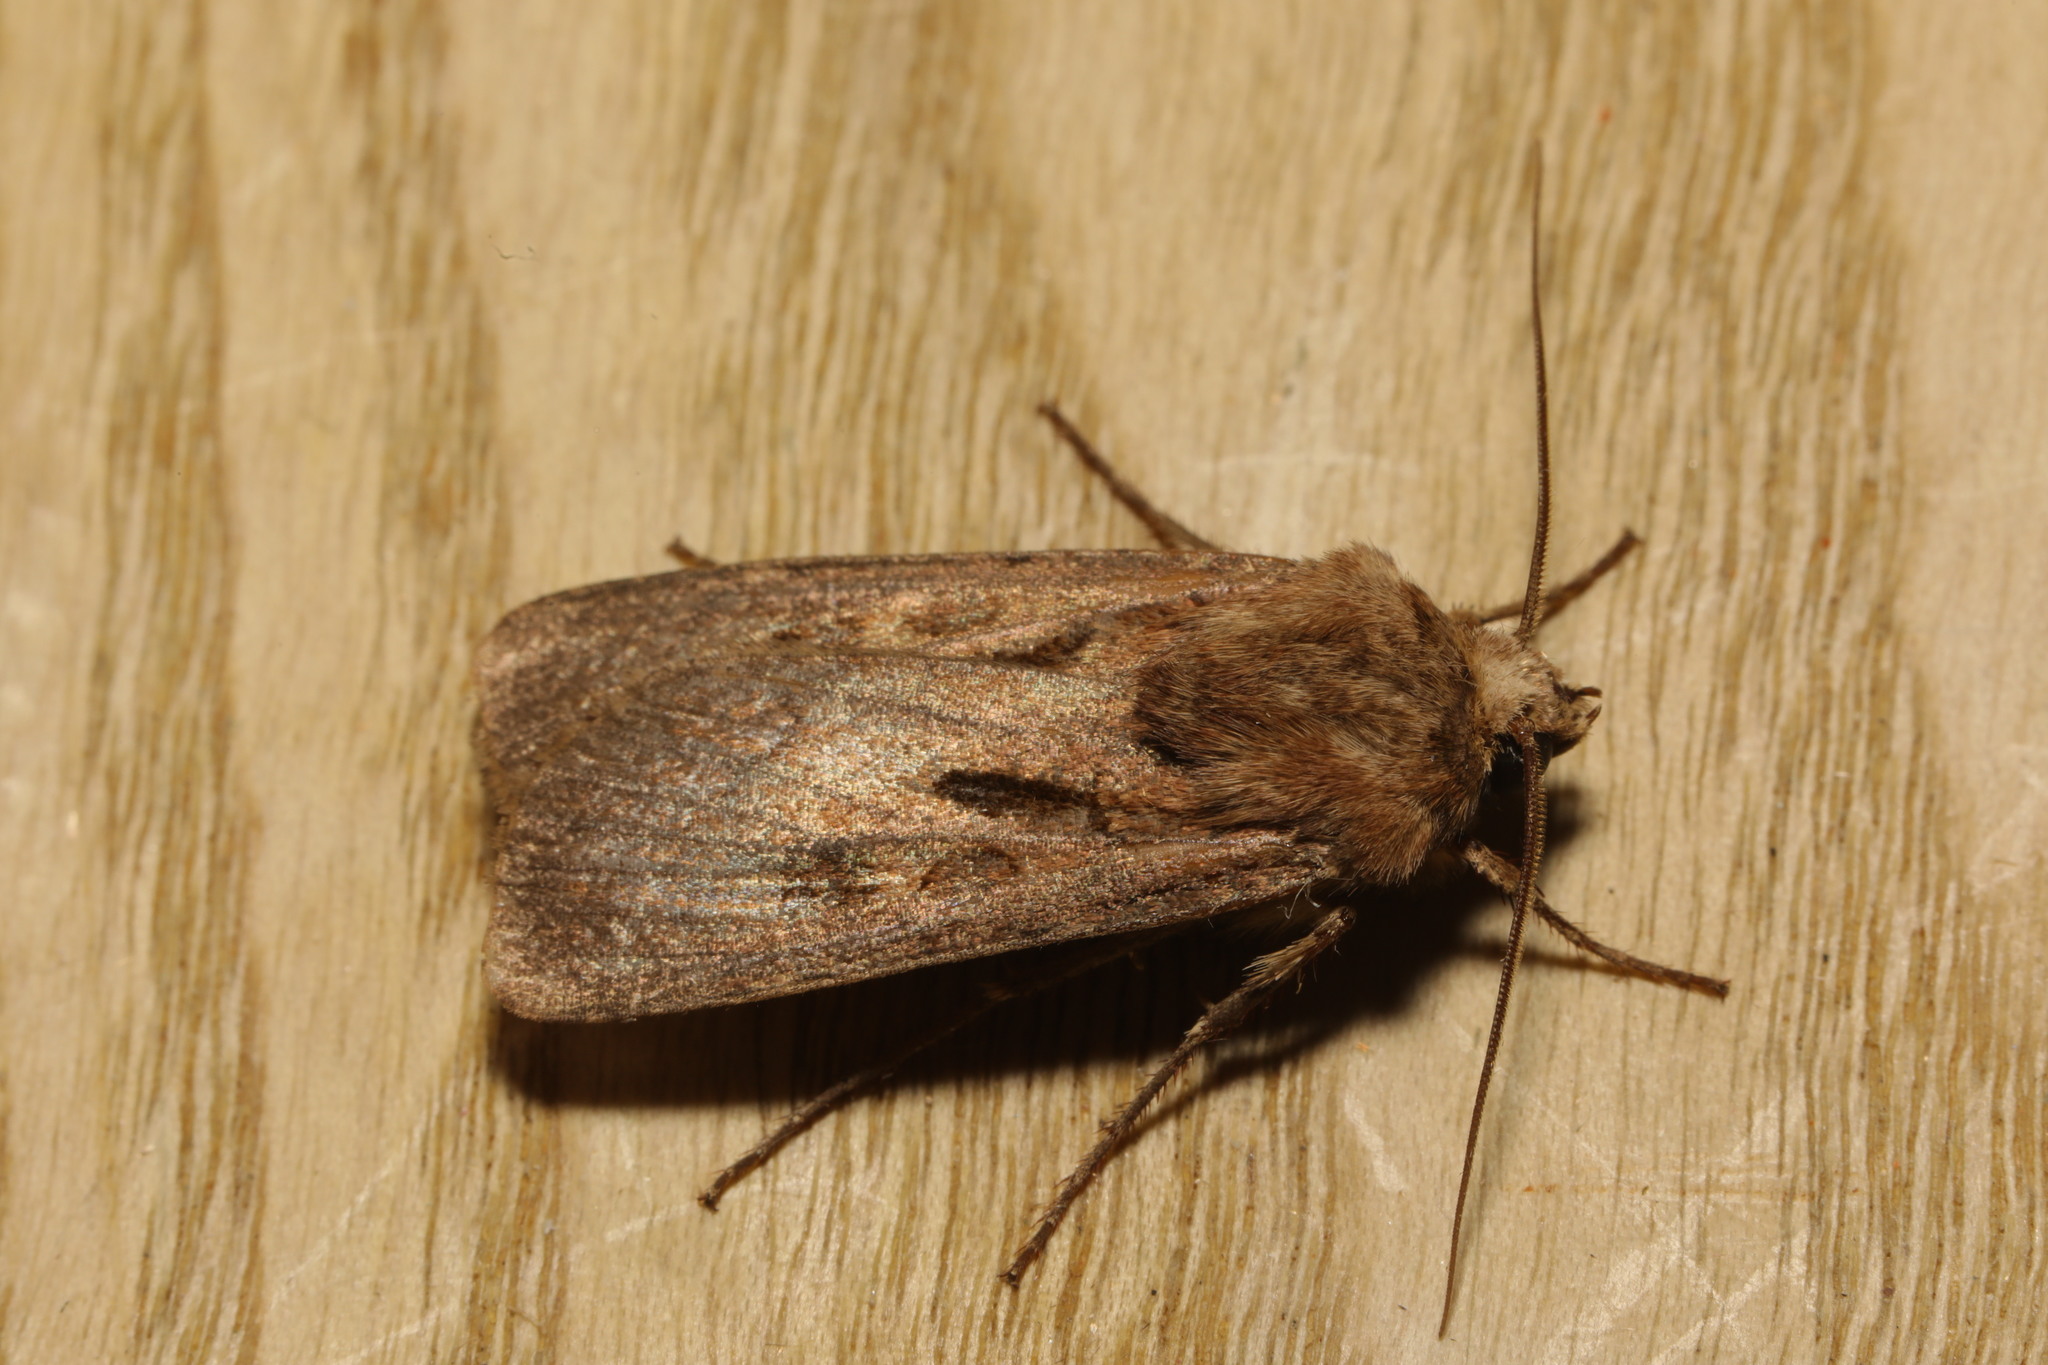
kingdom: Animalia
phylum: Arthropoda
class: Insecta
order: Lepidoptera
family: Noctuidae
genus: Agrotis
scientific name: Agrotis exclamationis
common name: Heart and dart
